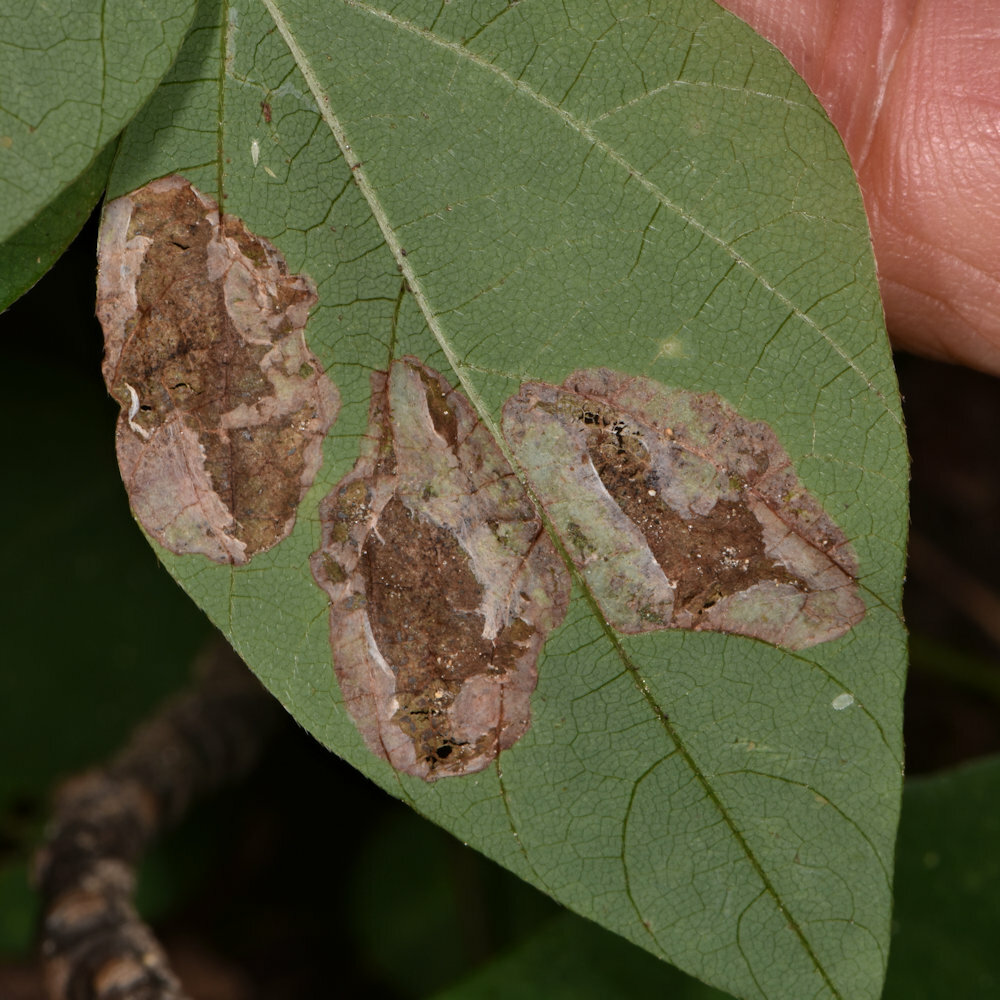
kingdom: Animalia
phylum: Arthropoda
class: Insecta
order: Lepidoptera
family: Gracillariidae
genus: Macrosaccus
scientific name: Macrosaccus morrisella
